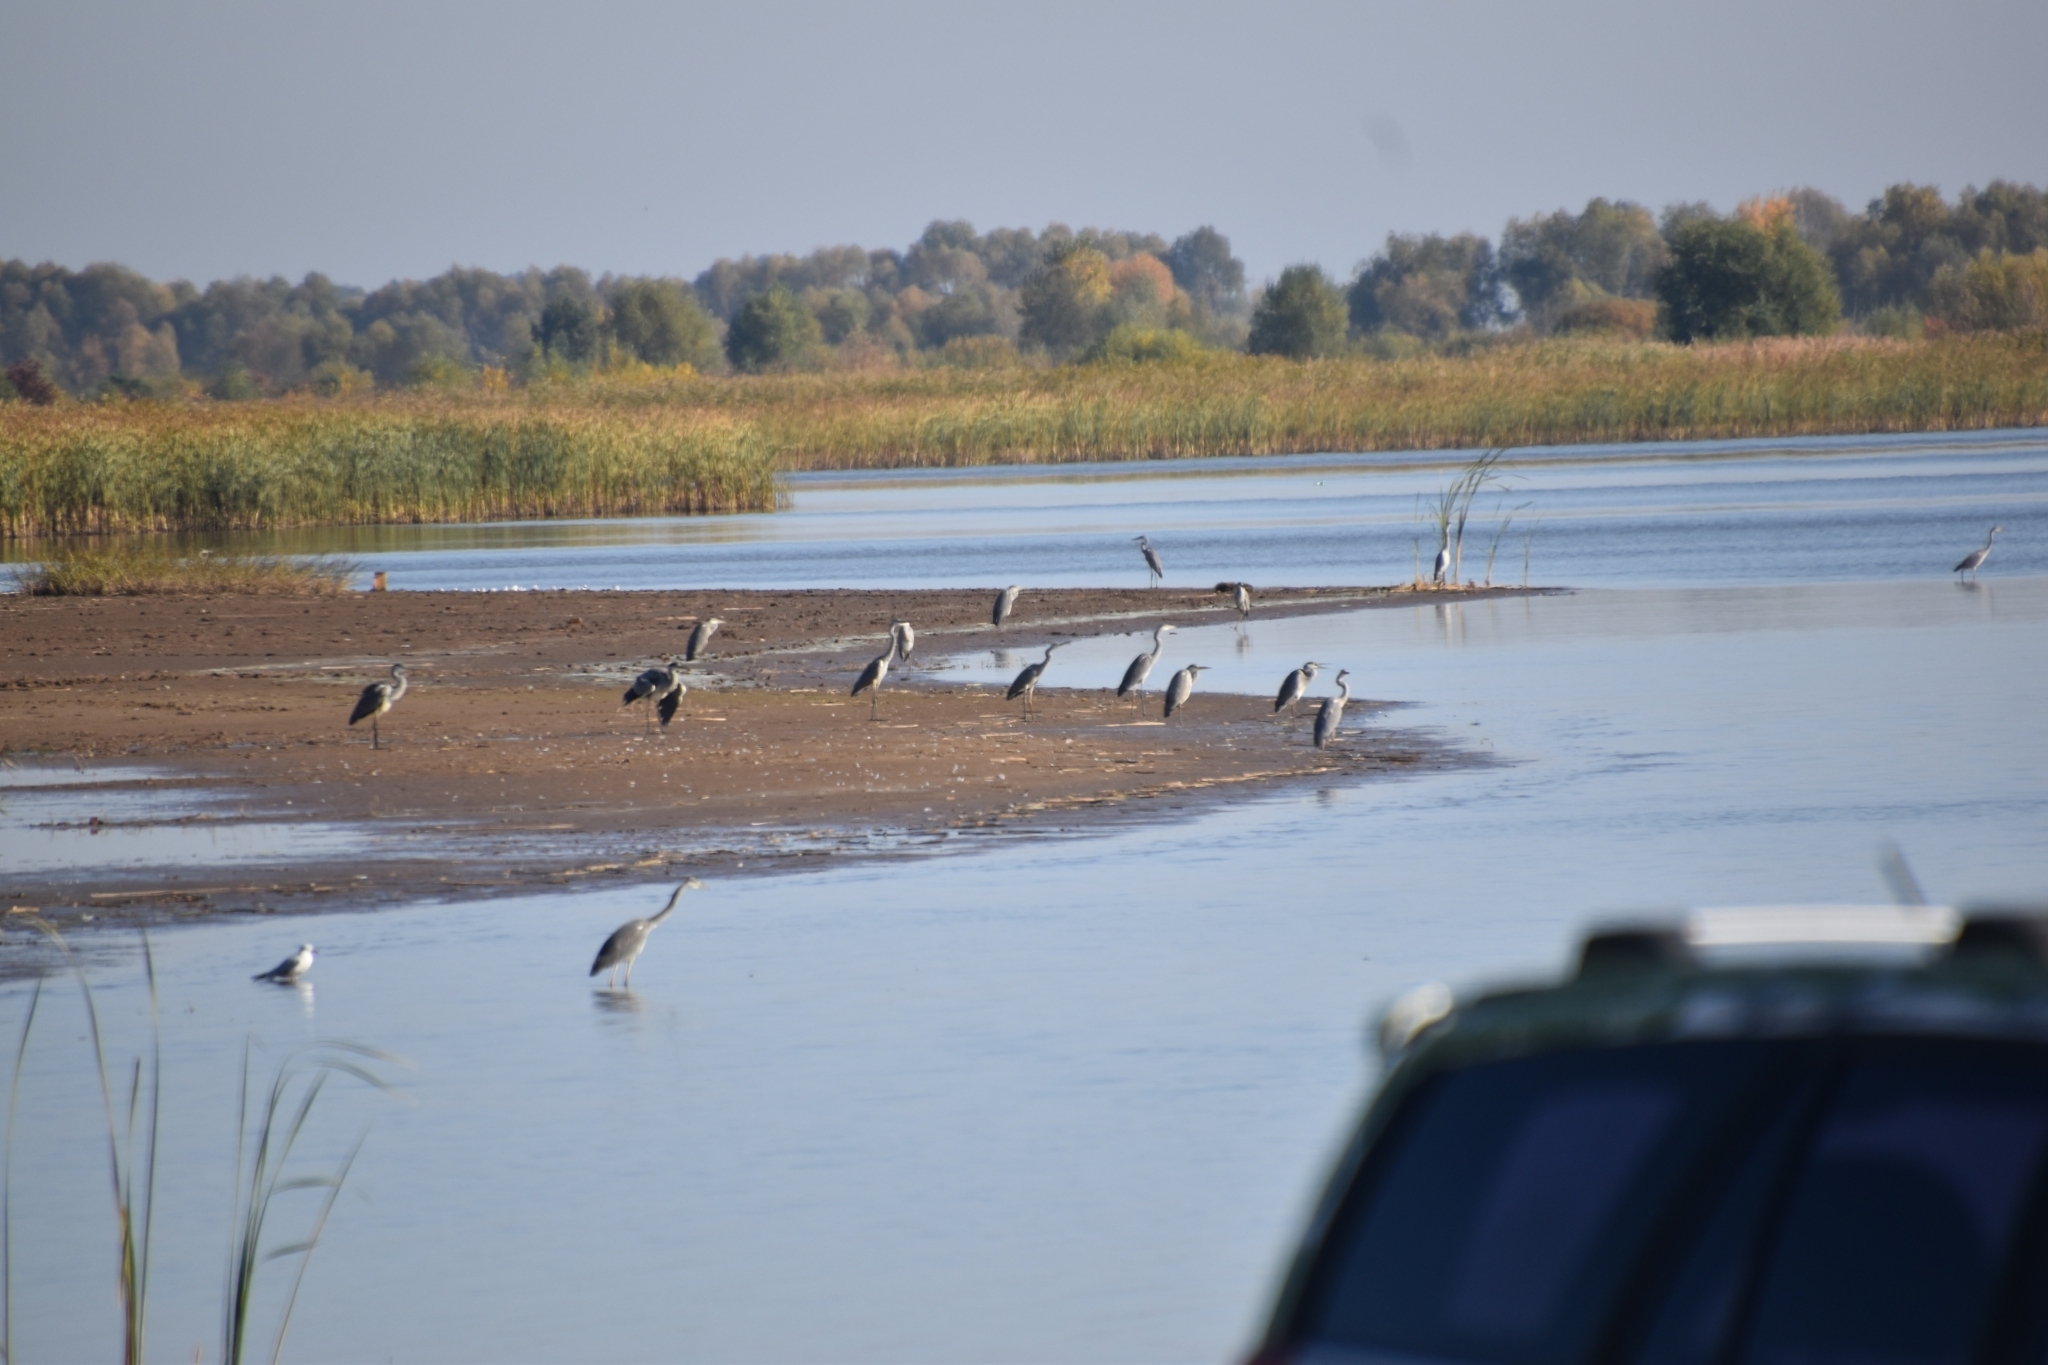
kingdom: Animalia
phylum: Chordata
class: Aves
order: Pelecaniformes
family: Ardeidae
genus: Ardea
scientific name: Ardea cinerea
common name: Grey heron
